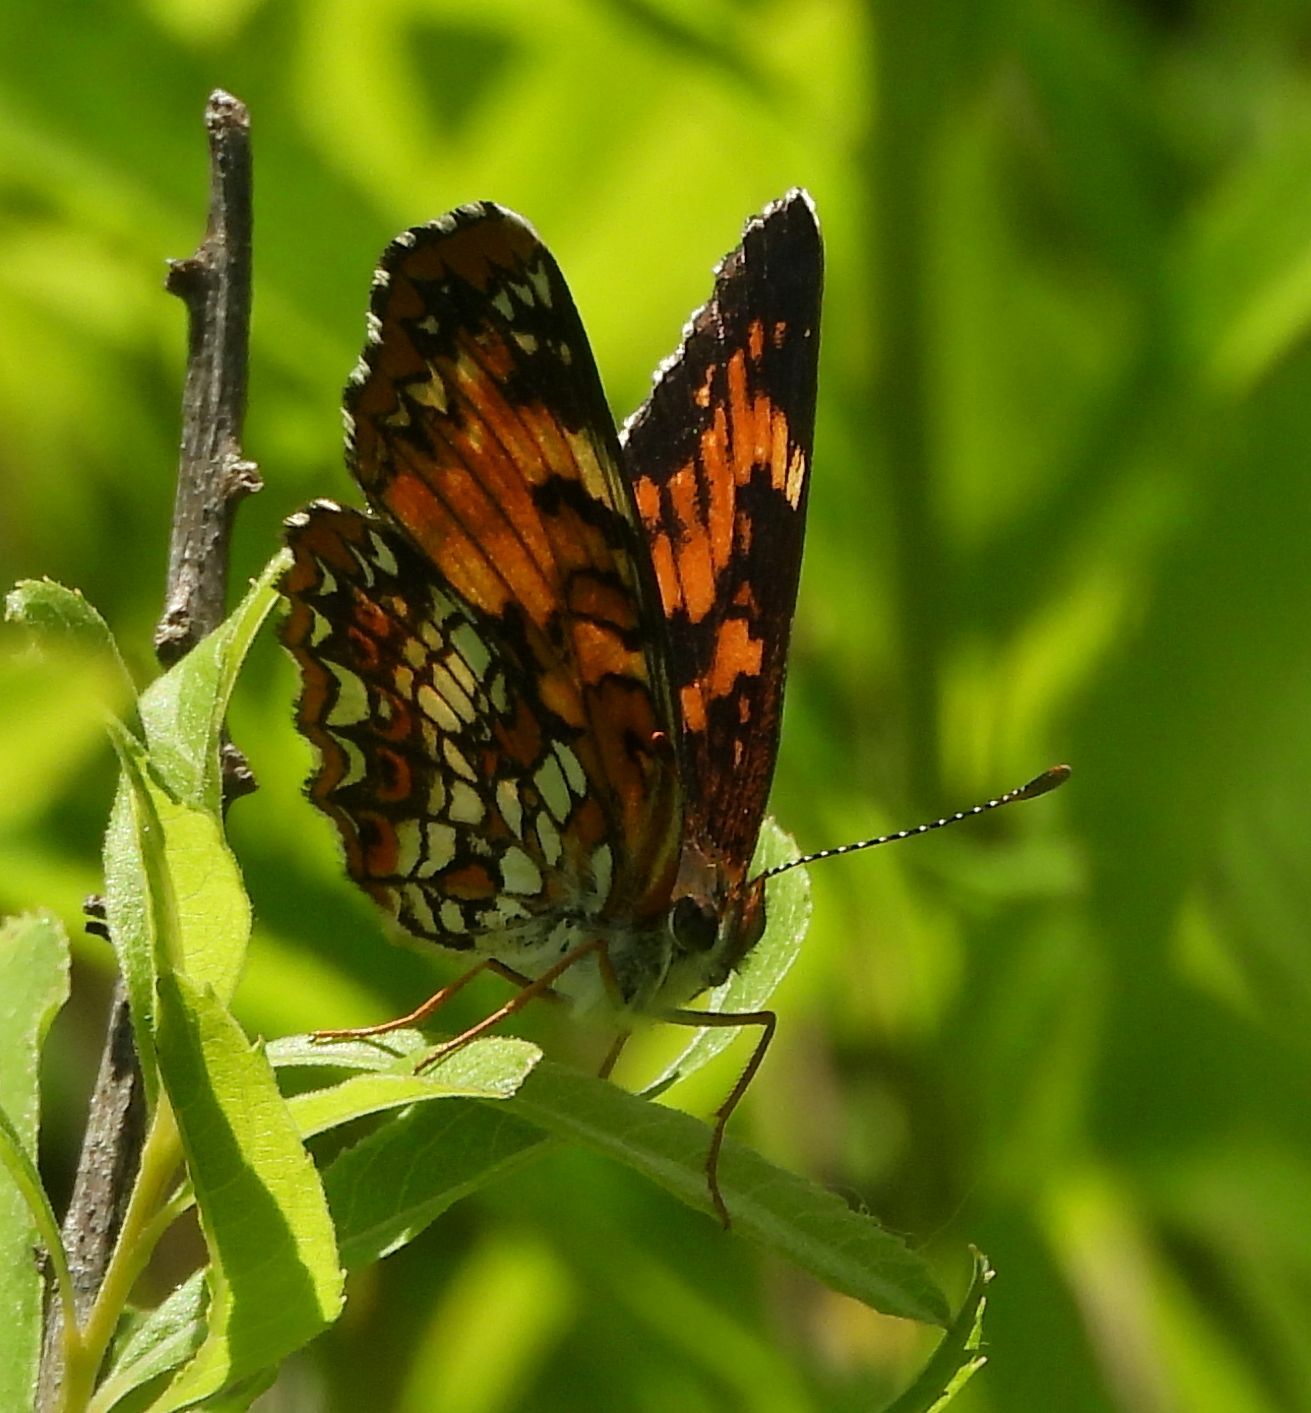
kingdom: Animalia
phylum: Arthropoda
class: Insecta
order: Lepidoptera
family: Nymphalidae
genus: Chlosyne
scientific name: Chlosyne harrisii
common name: Harris's checkerspot
